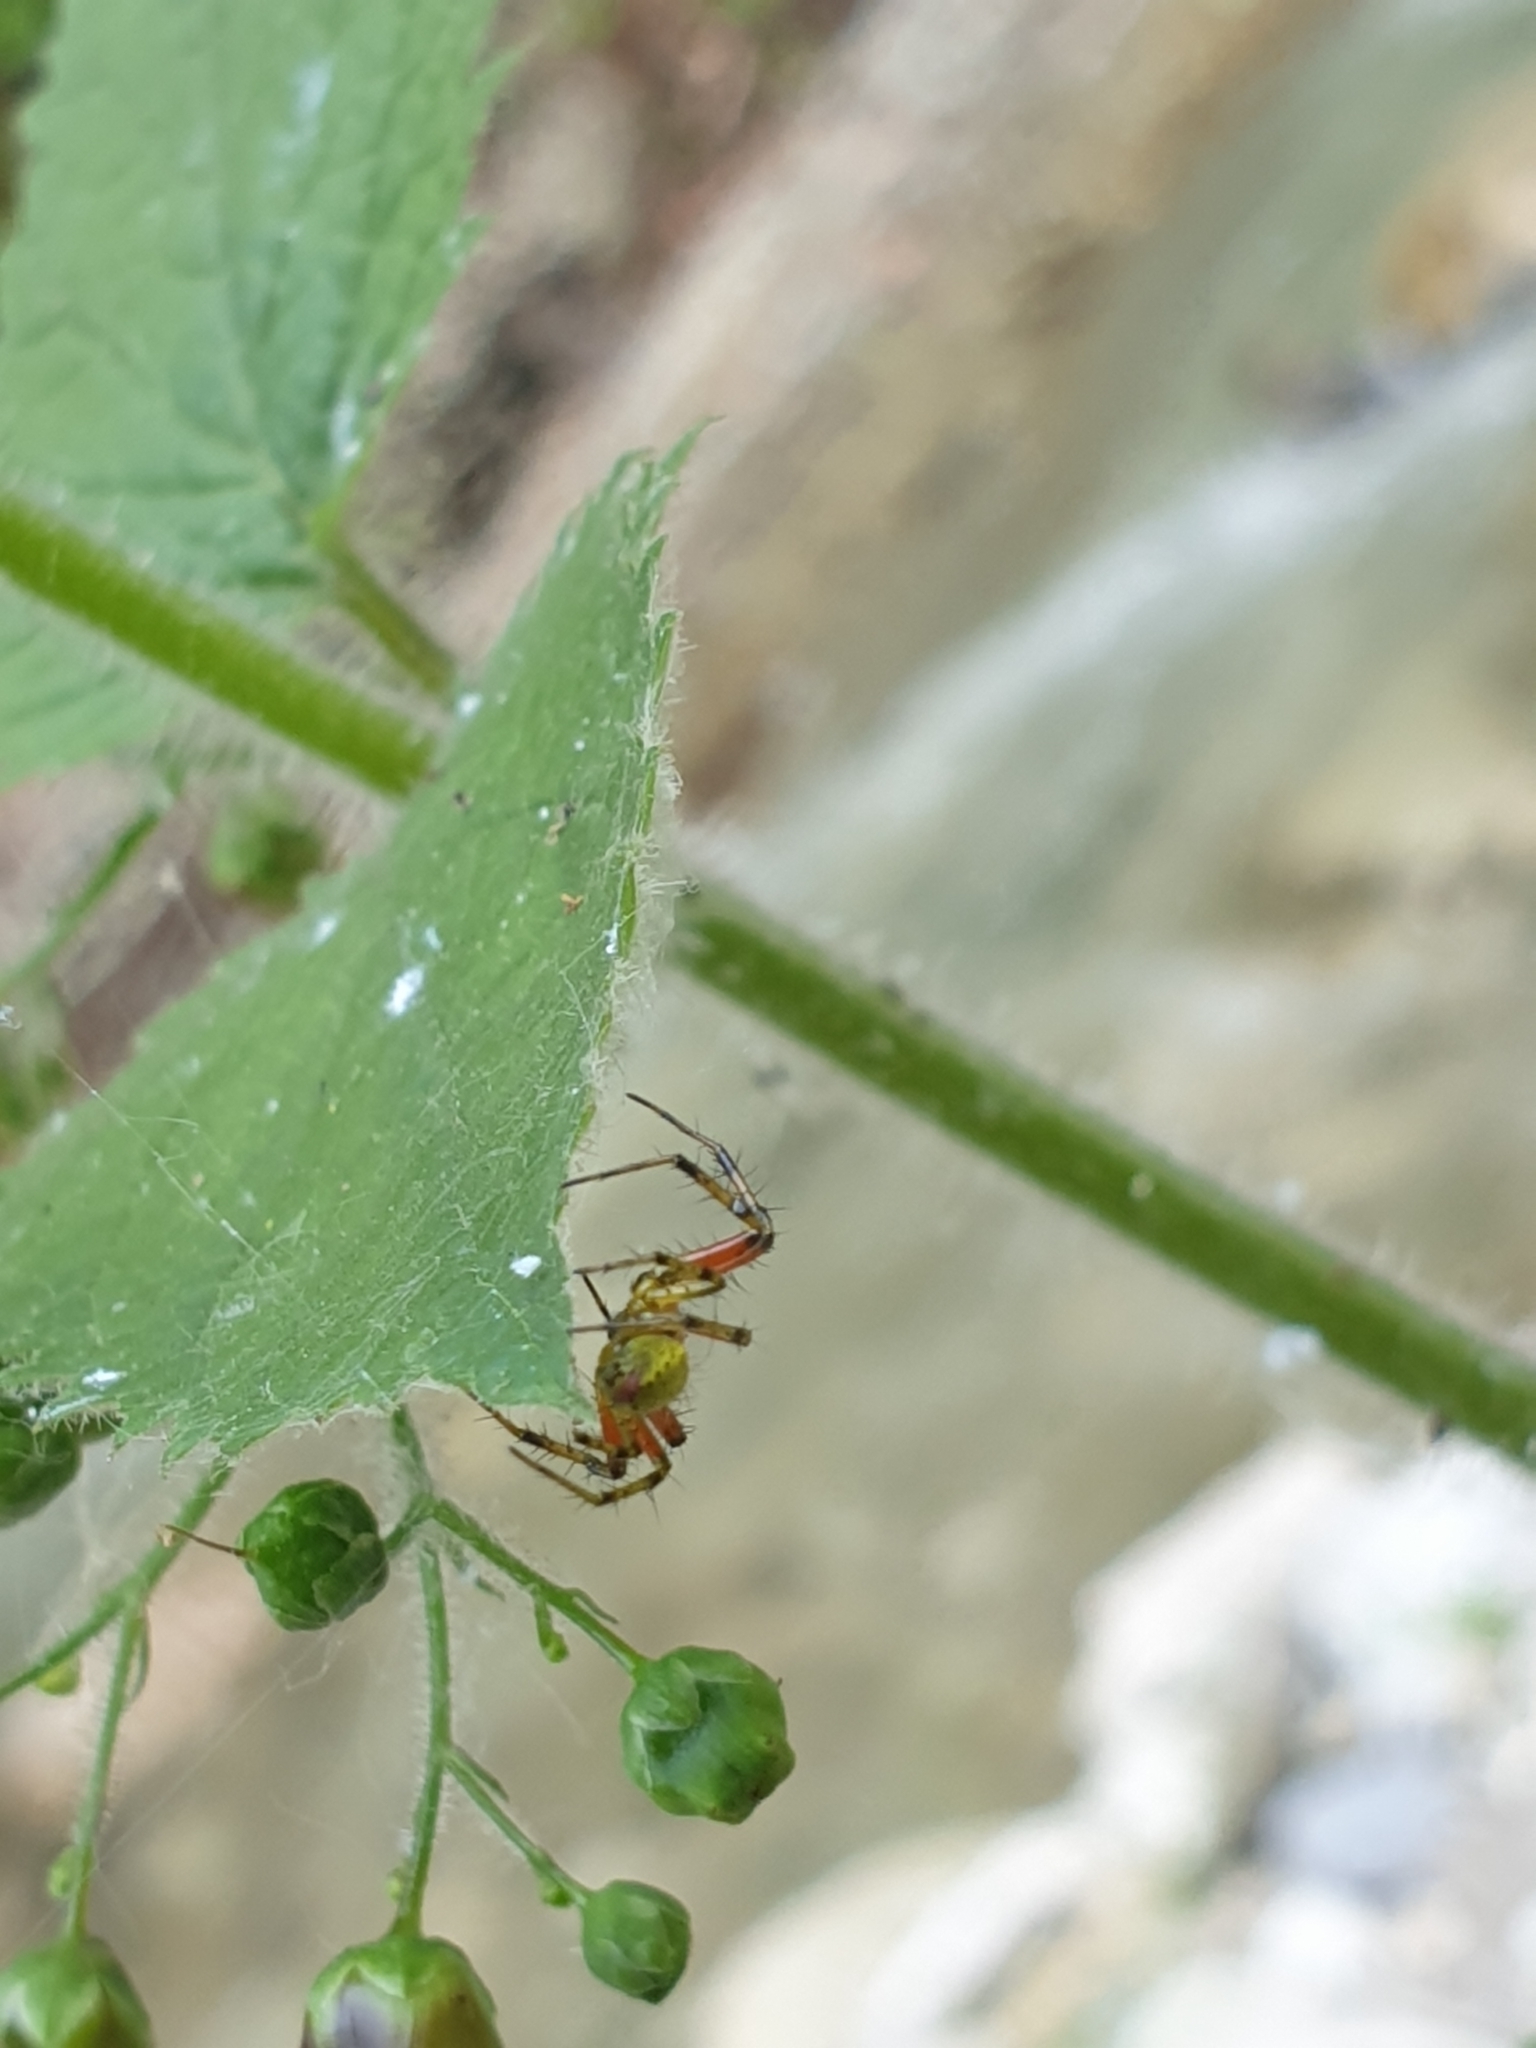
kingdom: Animalia
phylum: Arthropoda
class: Arachnida
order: Araneae
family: Araneidae
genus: Araniella
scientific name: Araniella
